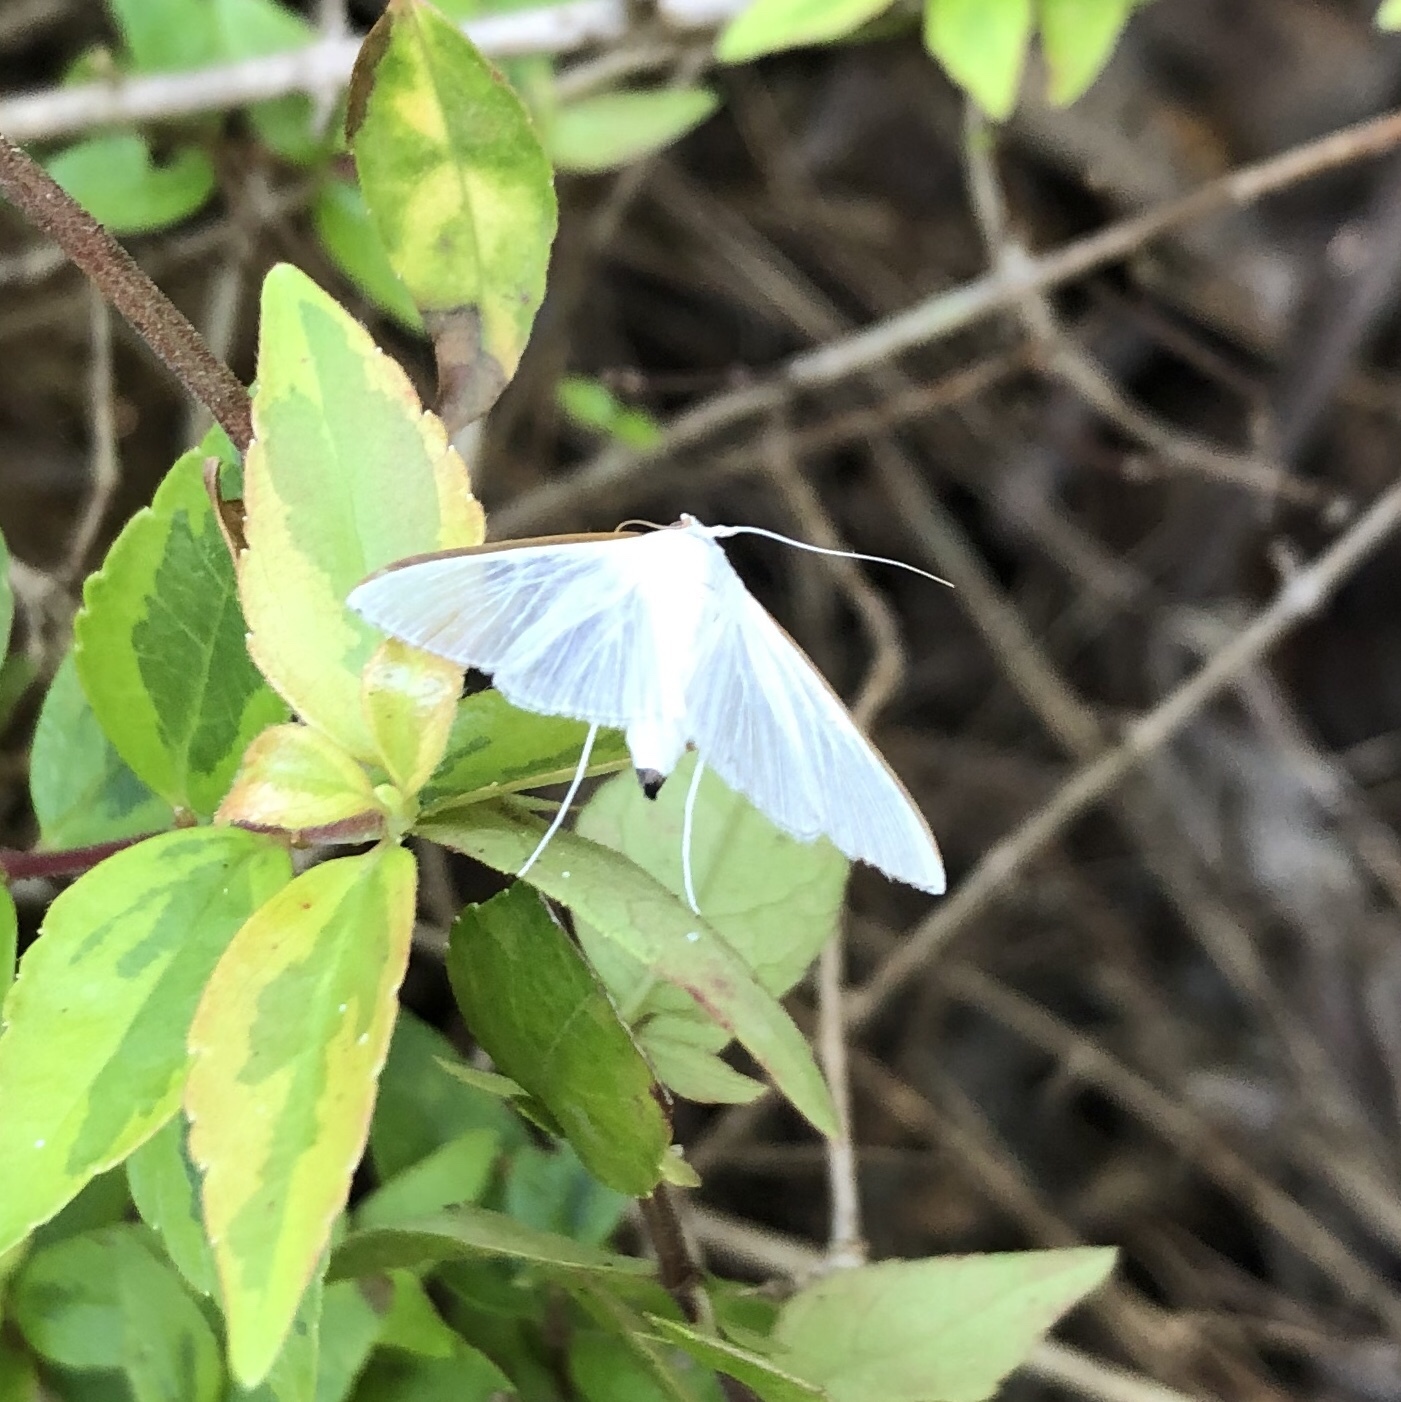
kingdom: Animalia
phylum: Arthropoda
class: Insecta
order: Lepidoptera
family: Crambidae
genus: Diaphania
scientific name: Diaphania costata
